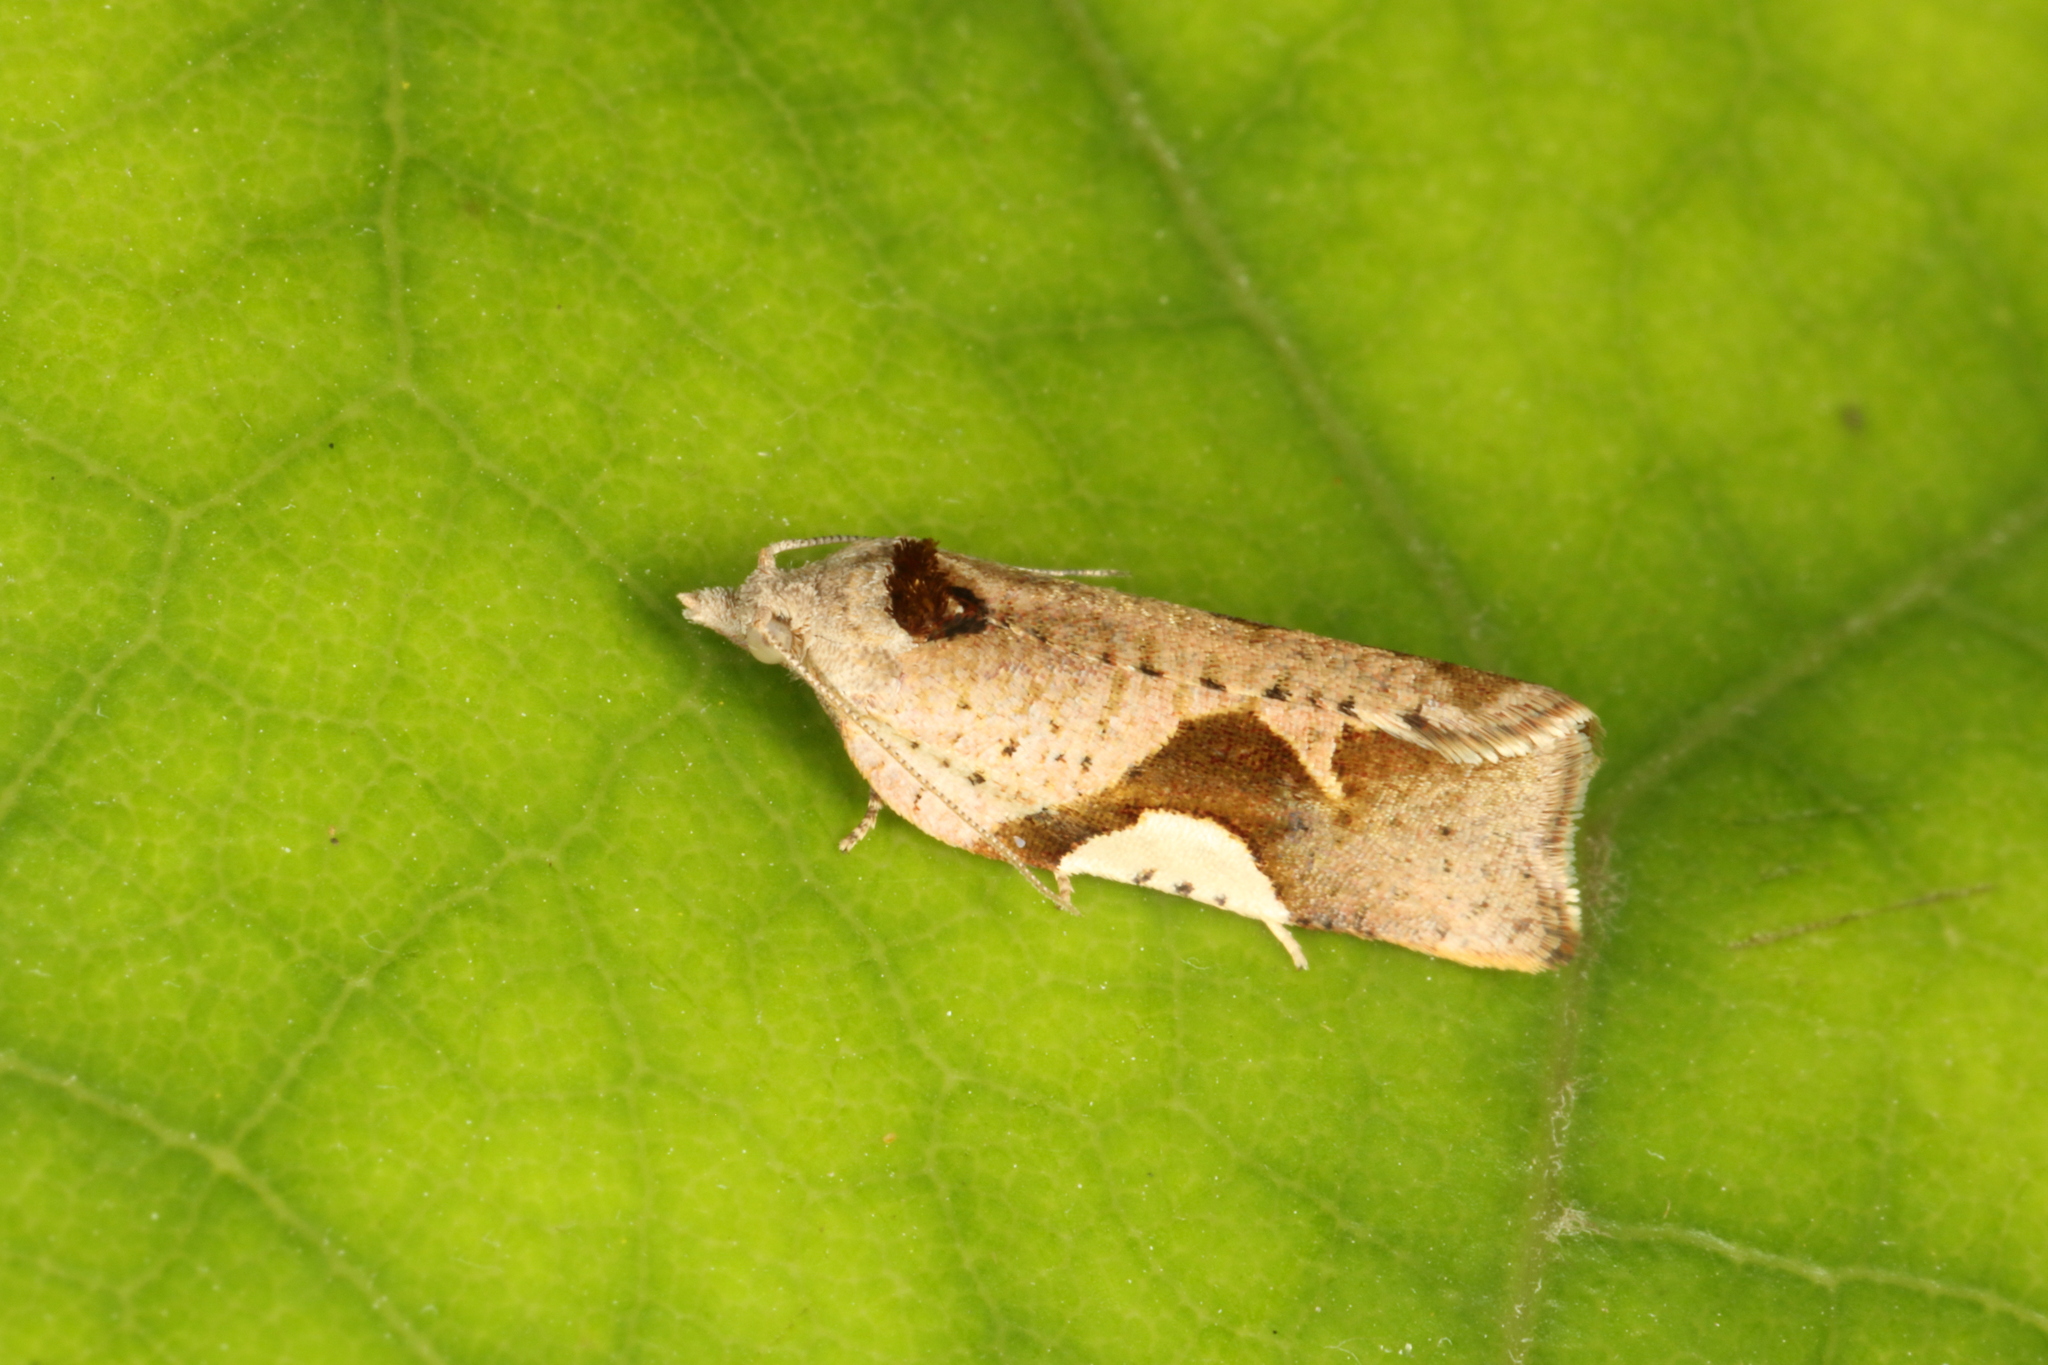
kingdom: Animalia
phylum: Arthropoda
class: Insecta
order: Lepidoptera
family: Tortricidae
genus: Pyrgotis
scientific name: Pyrgotis plagiatana
